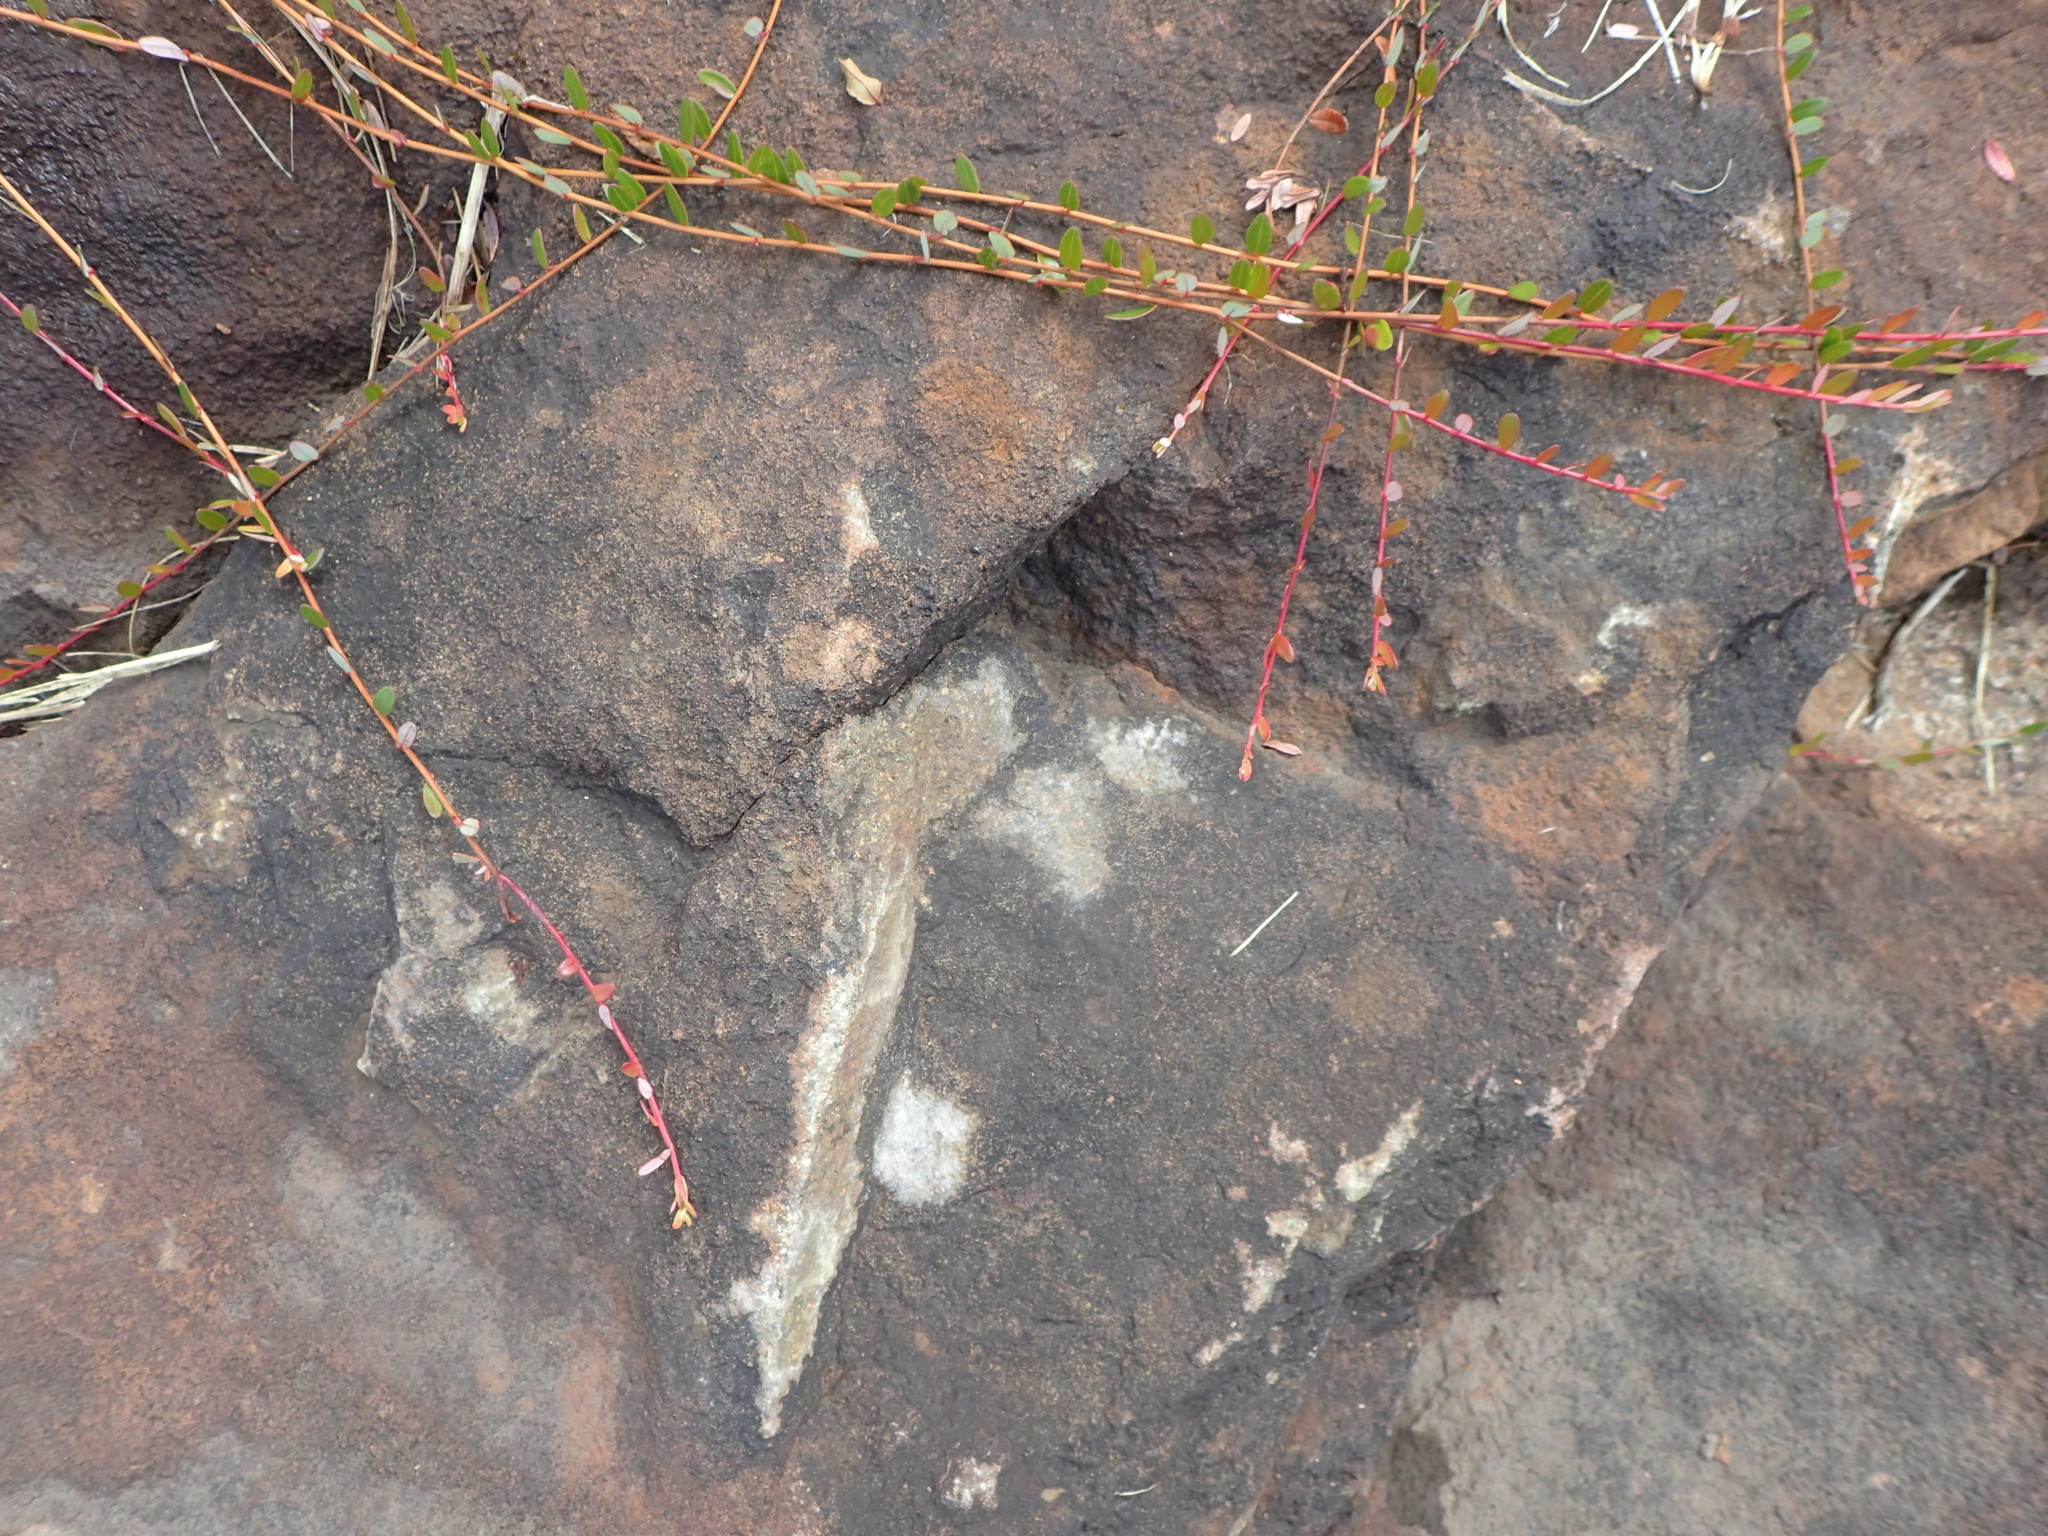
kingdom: Plantae
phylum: Tracheophyta
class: Magnoliopsida
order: Ericales
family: Ericaceae
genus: Vaccinium
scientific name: Vaccinium macrocarpon
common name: American cranberry
